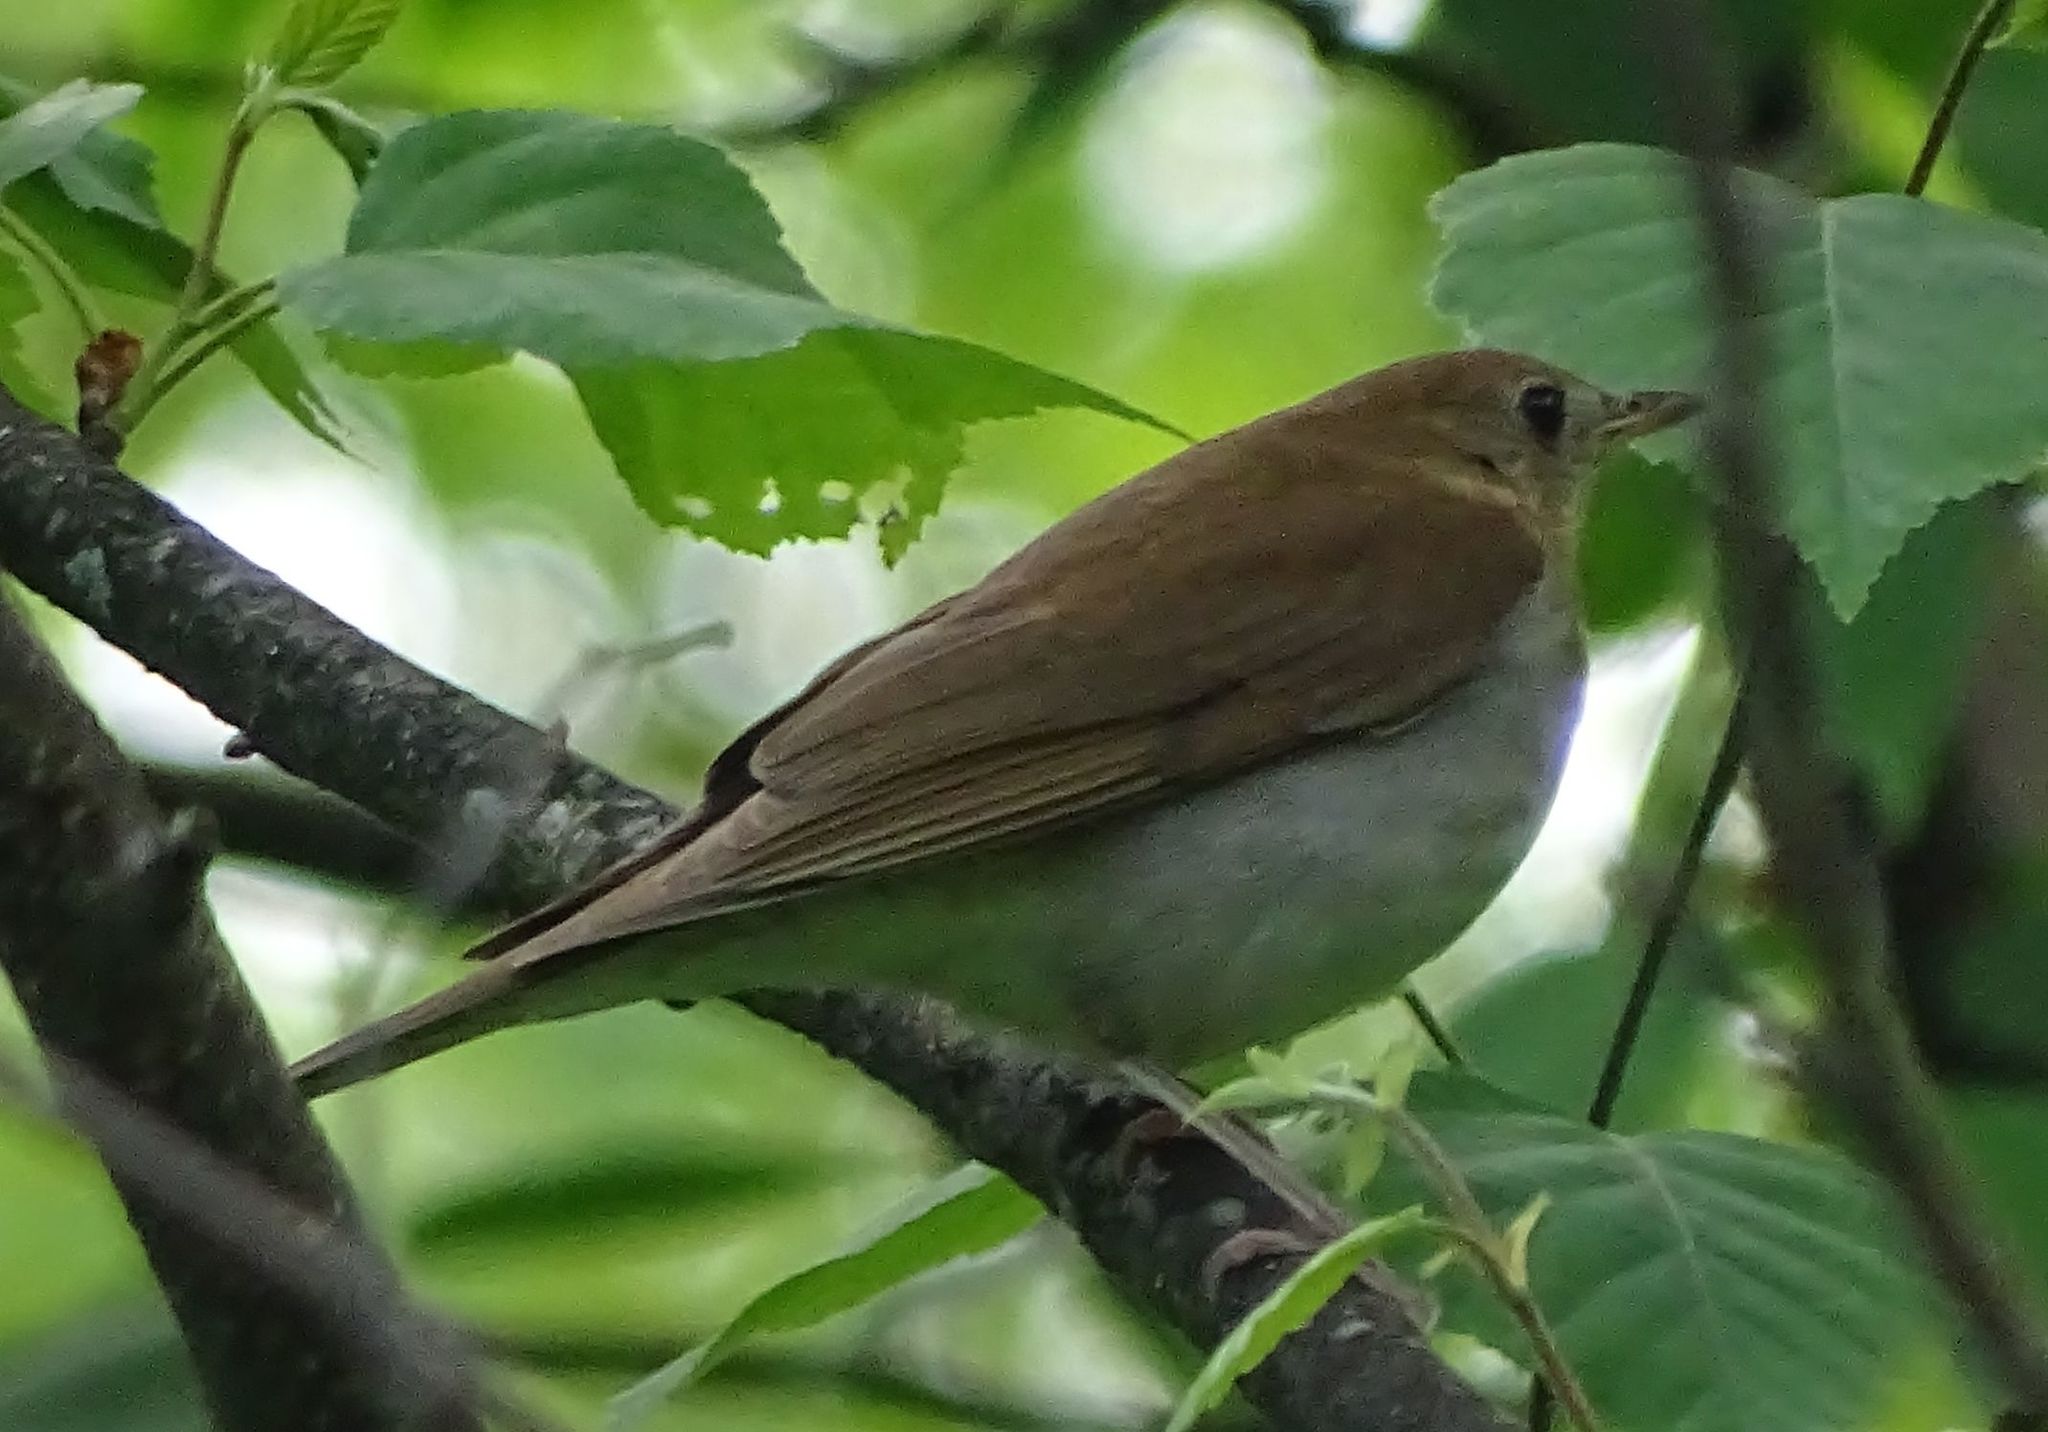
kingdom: Animalia
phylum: Chordata
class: Aves
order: Passeriformes
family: Turdidae
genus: Catharus
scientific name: Catharus fuscescens
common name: Veery
